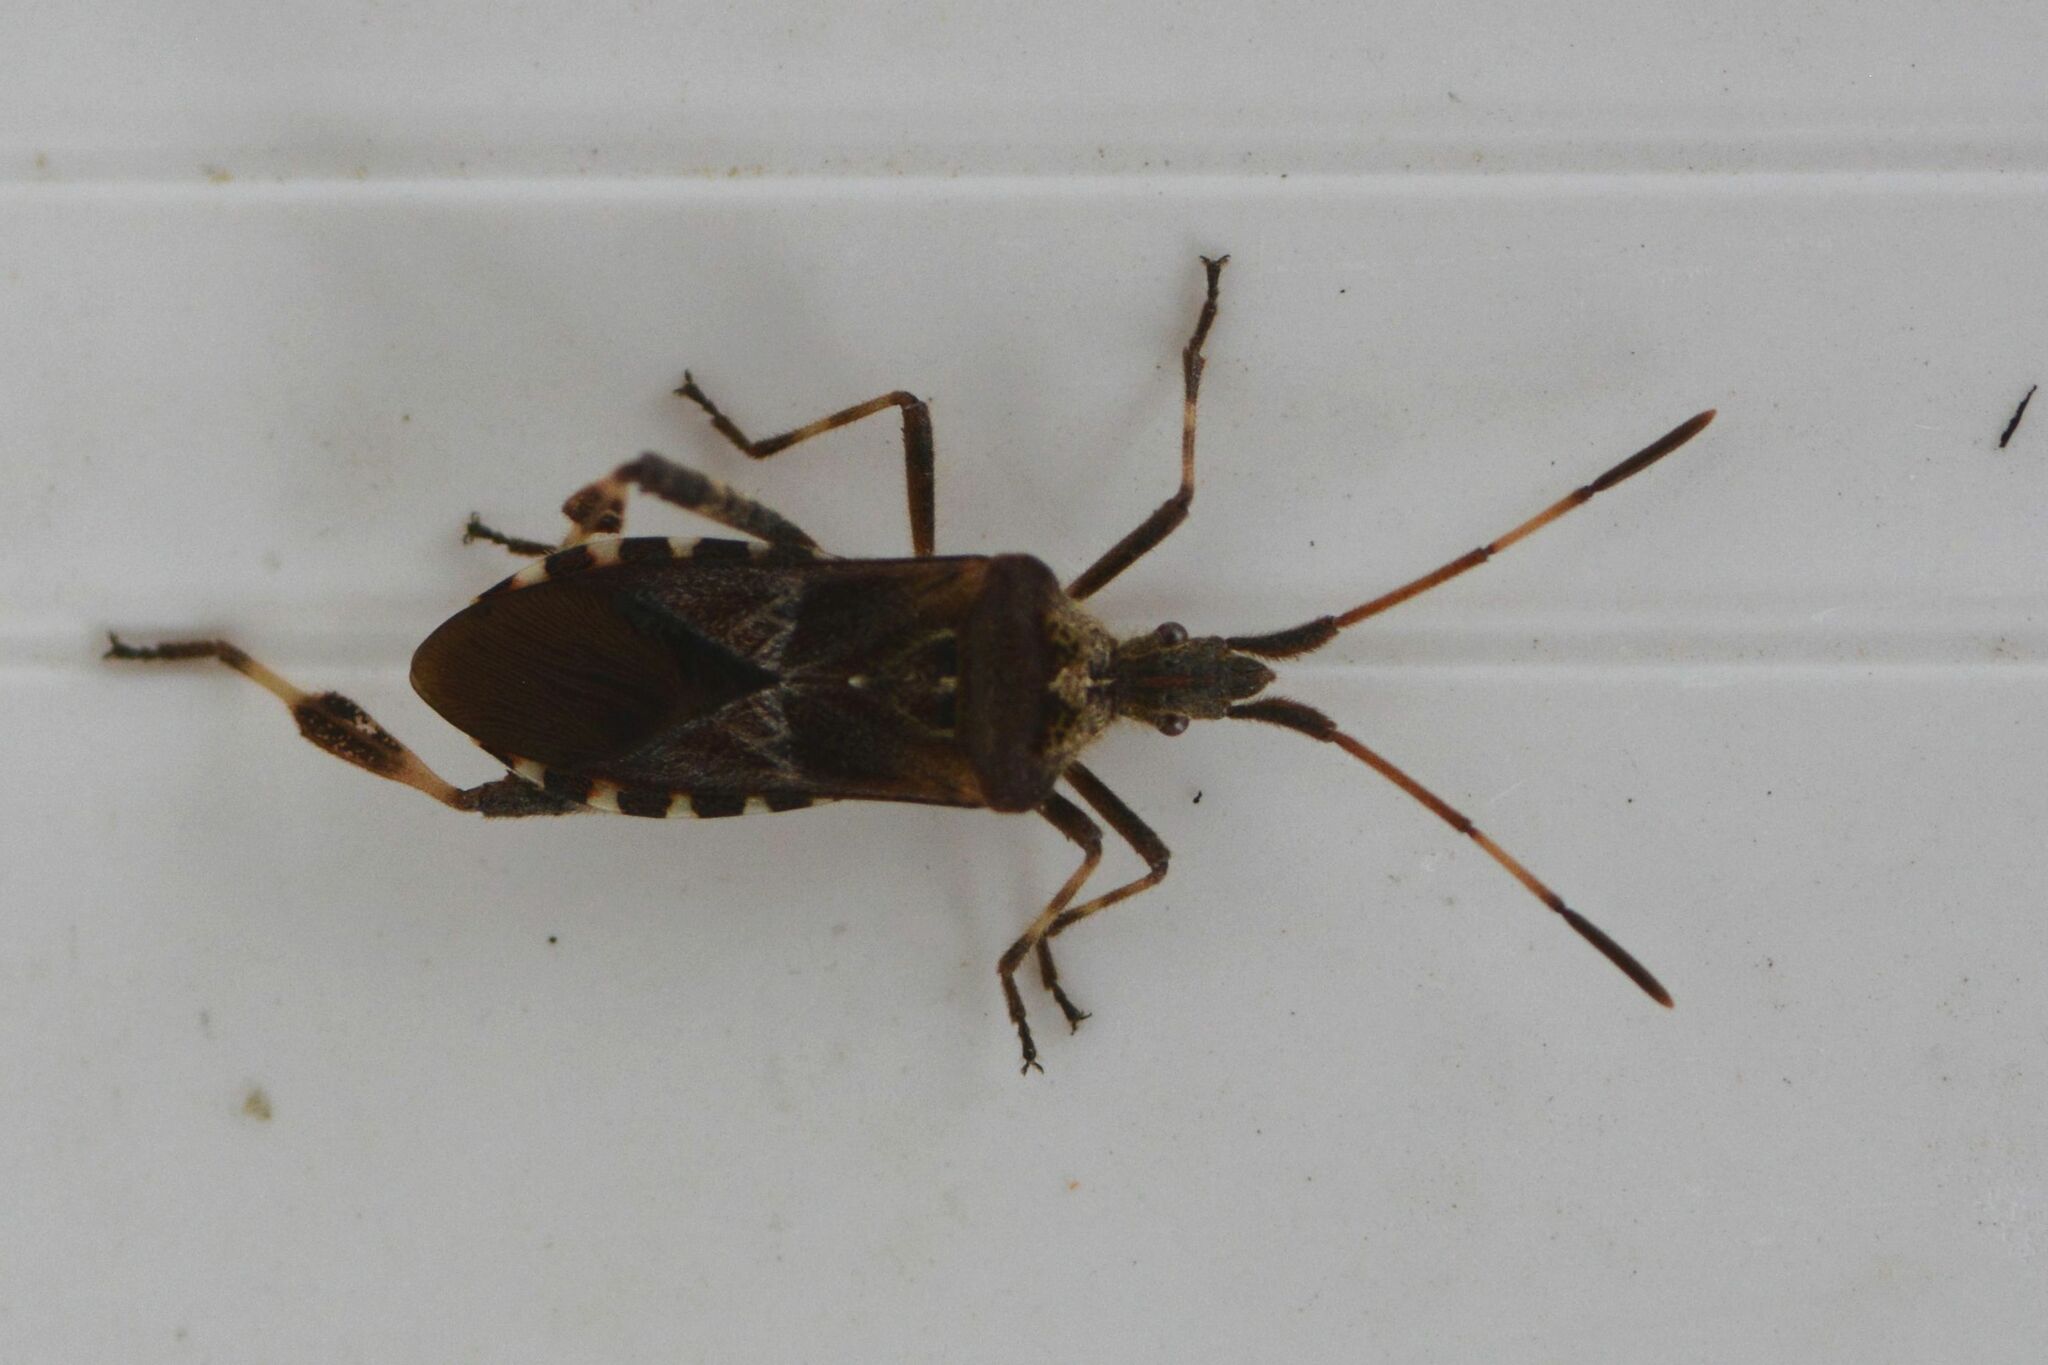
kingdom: Animalia
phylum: Arthropoda
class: Insecta
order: Hemiptera
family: Coreidae
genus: Leptoglossus
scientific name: Leptoglossus occidentalis
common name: Western conifer-seed bug
